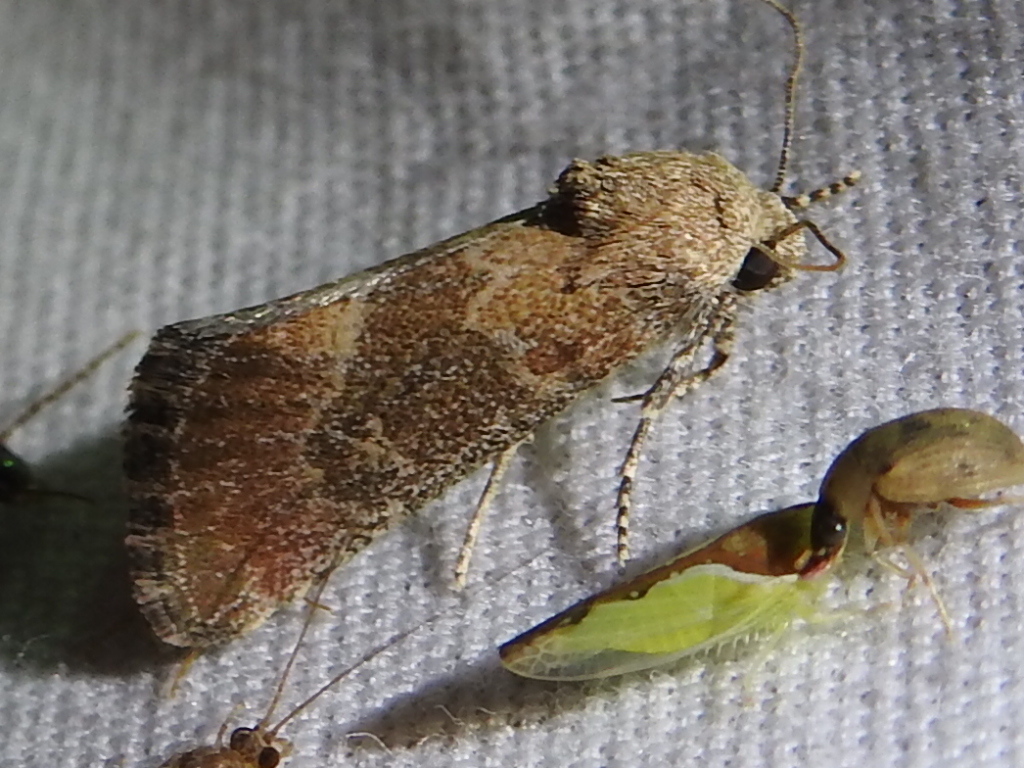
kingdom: Animalia
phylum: Arthropoda
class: Insecta
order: Lepidoptera
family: Noctuidae
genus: Plagiomimicus
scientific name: Plagiomimicus navia
